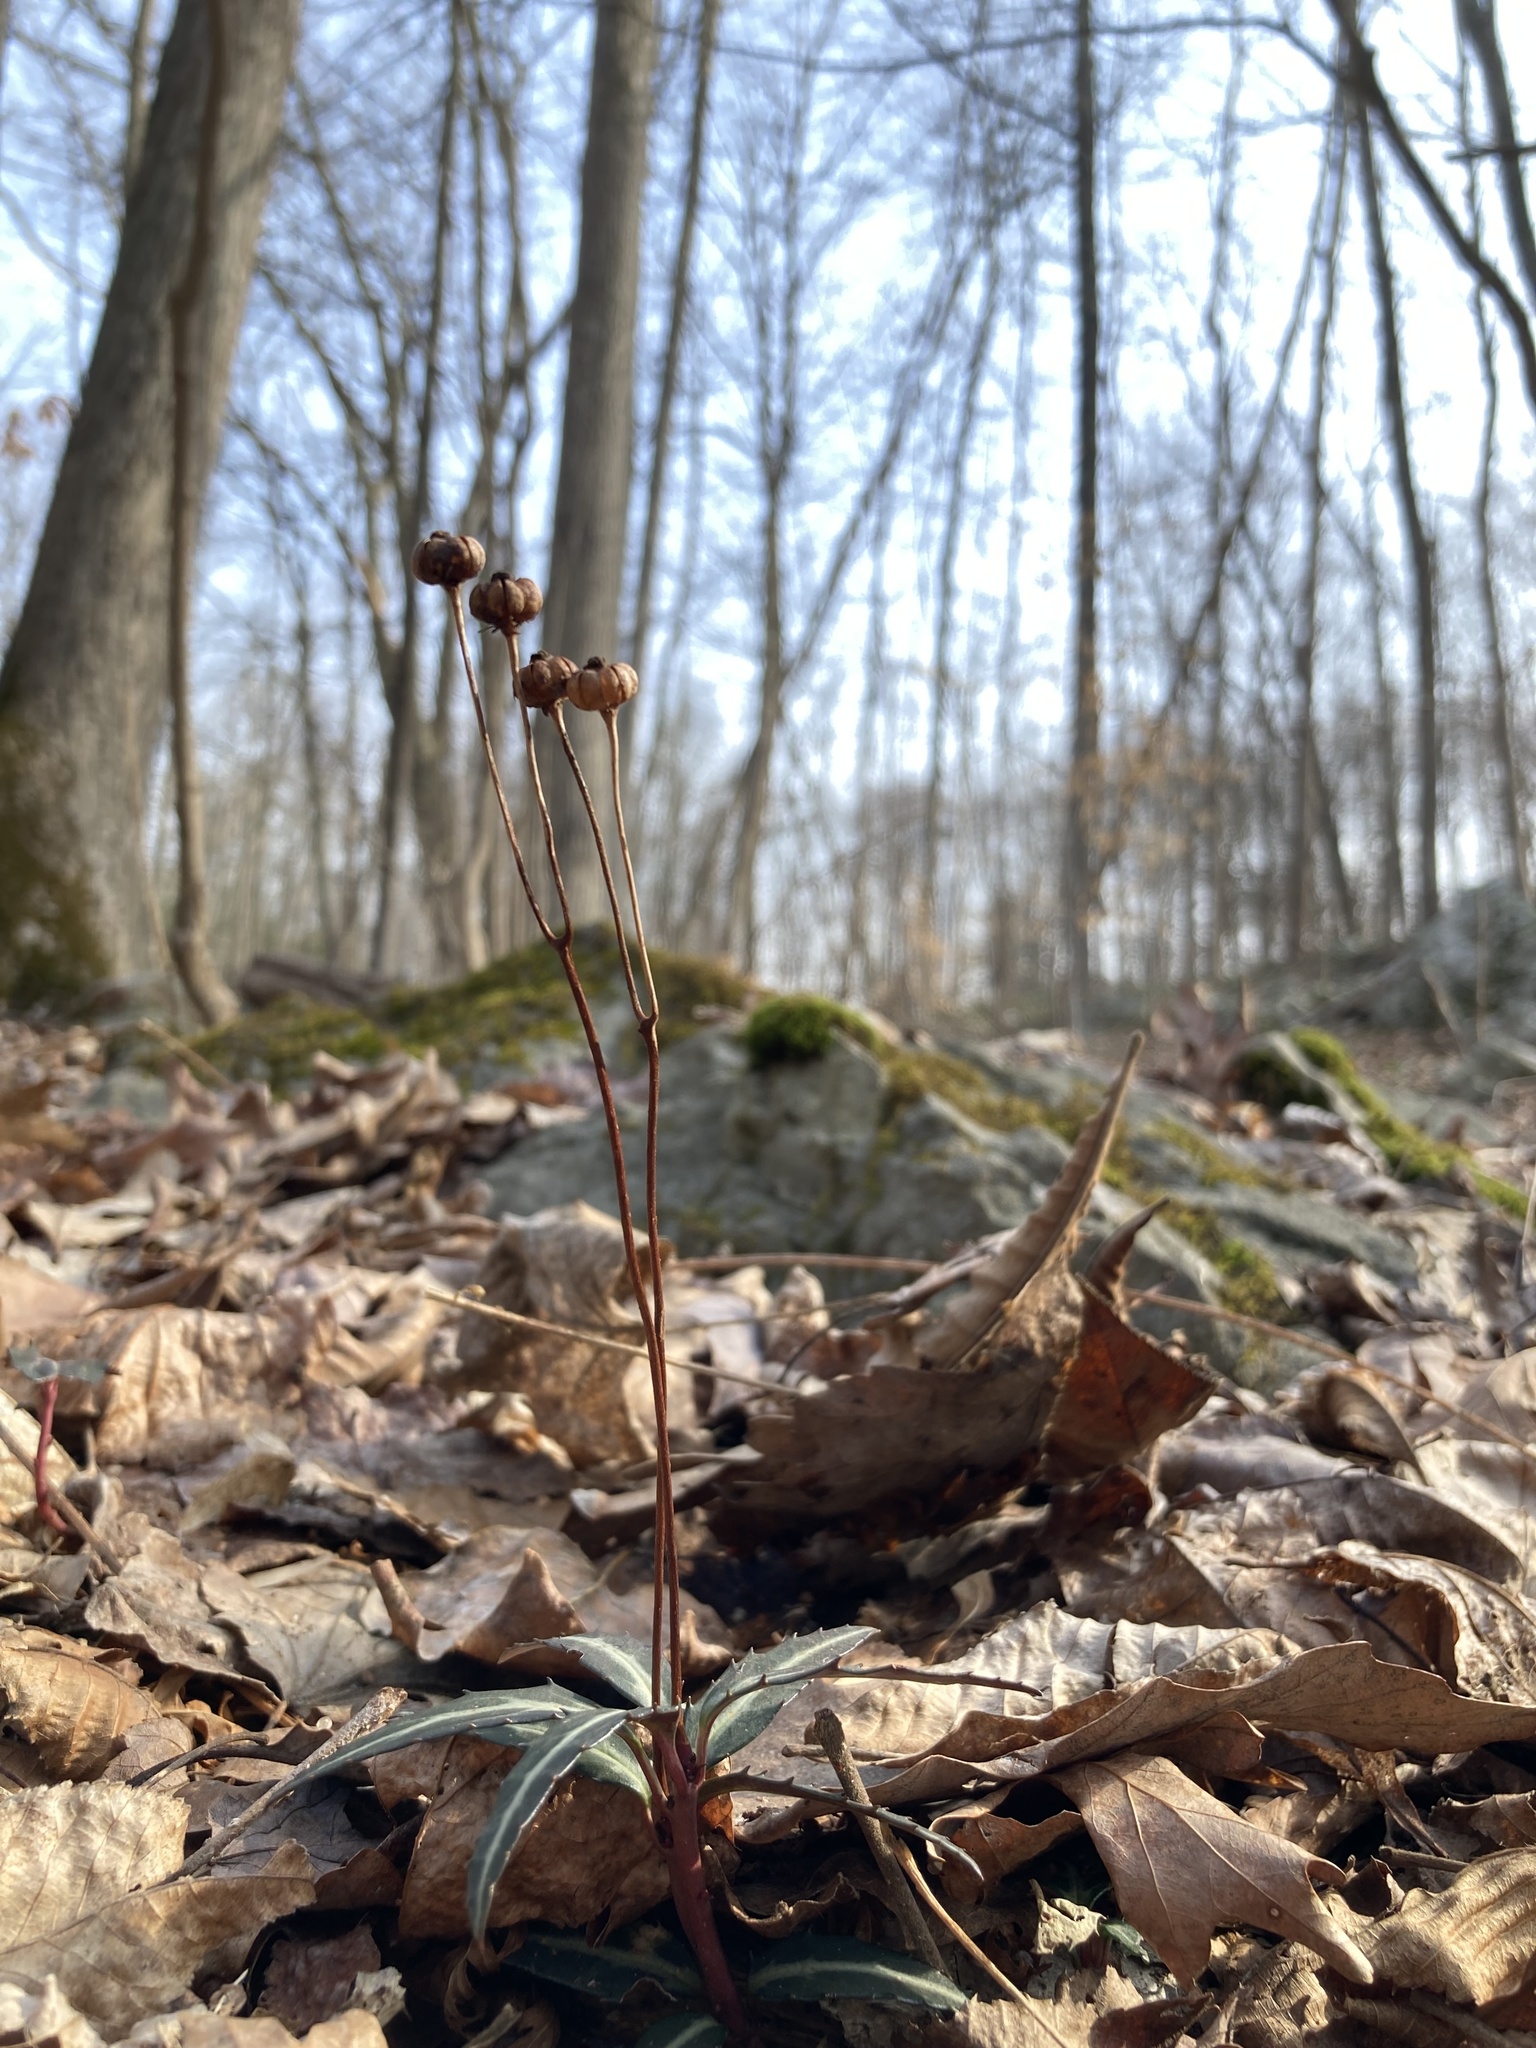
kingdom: Plantae
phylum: Tracheophyta
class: Magnoliopsida
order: Ericales
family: Ericaceae
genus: Chimaphila
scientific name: Chimaphila maculata
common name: Spotted pipsissewa
